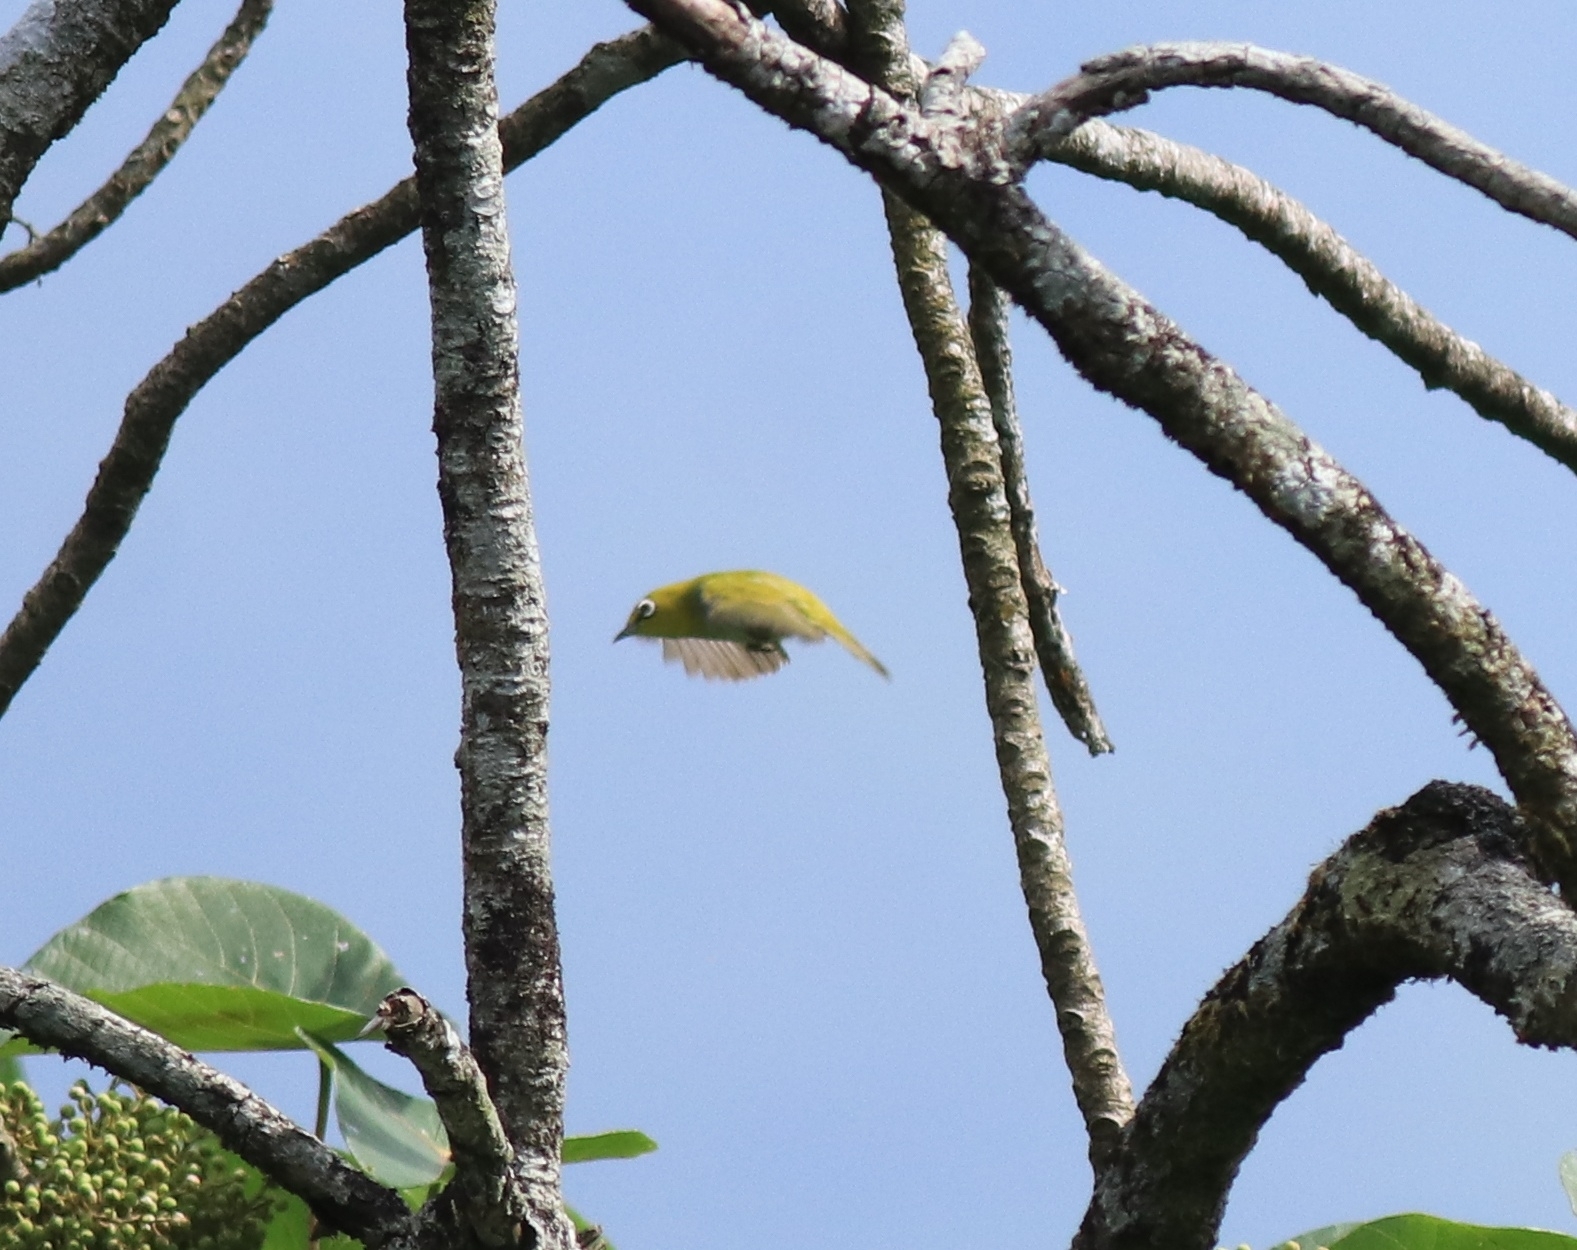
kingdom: Animalia
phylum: Chordata
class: Aves
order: Passeriformes
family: Zosteropidae
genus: Zosterops
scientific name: Zosterops palpebrosus
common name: Oriental white-eye
